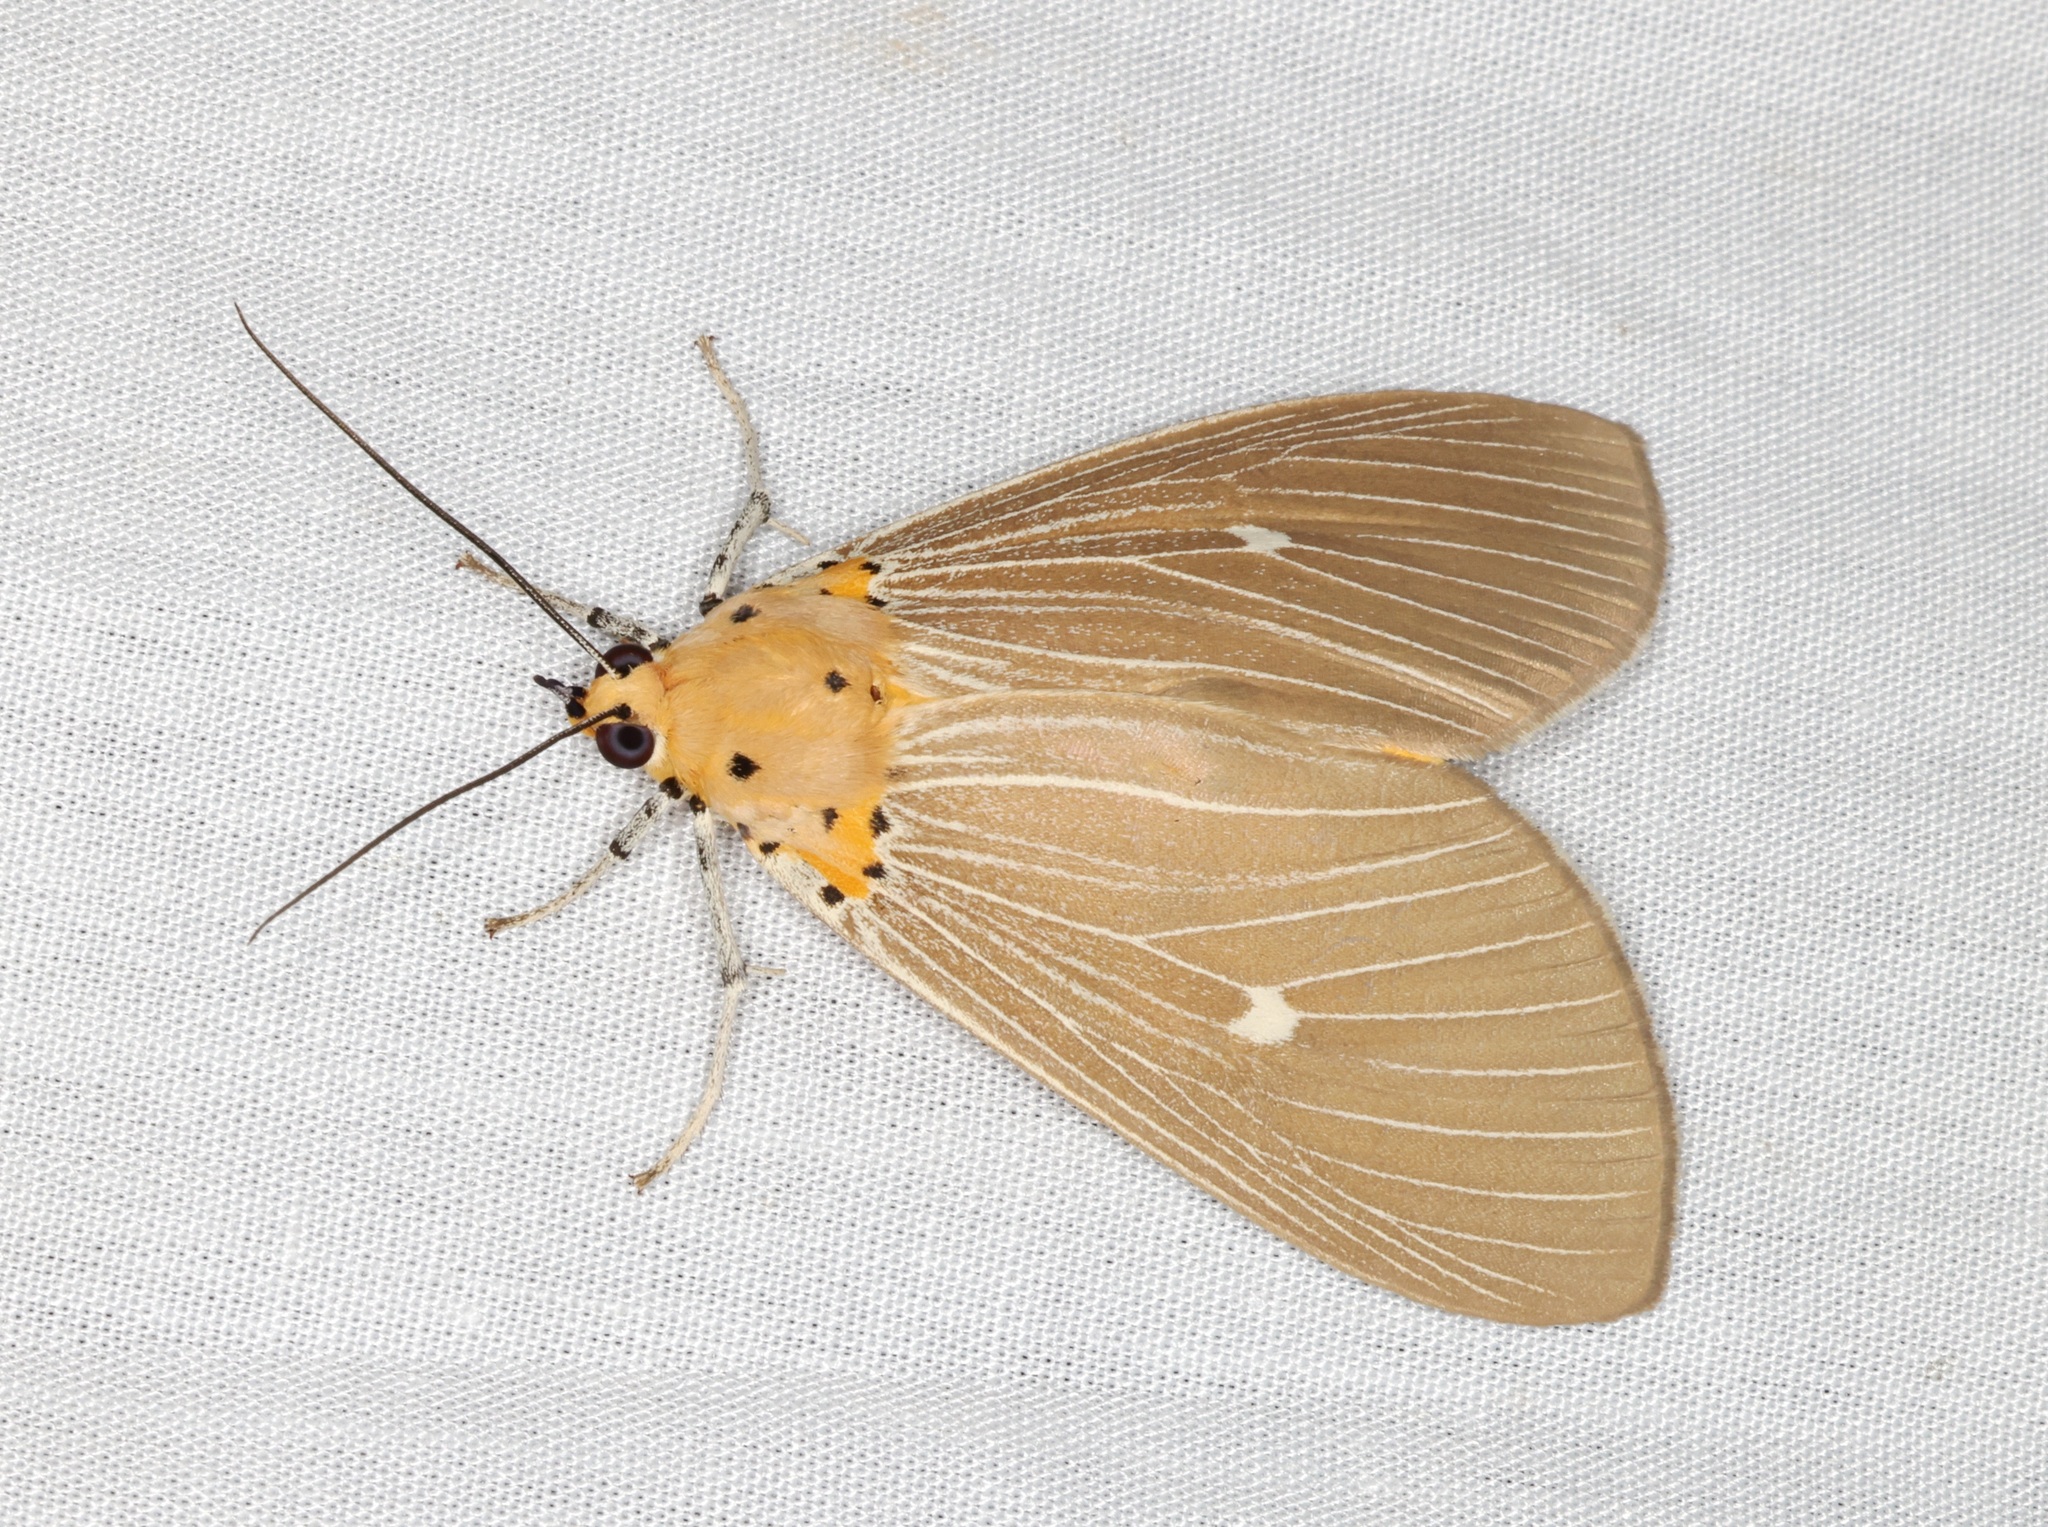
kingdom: Animalia
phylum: Arthropoda
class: Insecta
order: Lepidoptera
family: Erebidae
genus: Asota
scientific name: Asota caricae
